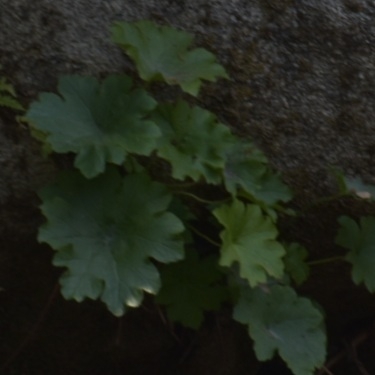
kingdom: Plantae
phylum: Tracheophyta
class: Magnoliopsida
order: Saxifragales
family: Saxifragaceae
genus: Darmera
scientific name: Darmera peltata
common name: Indian-rhubarb
